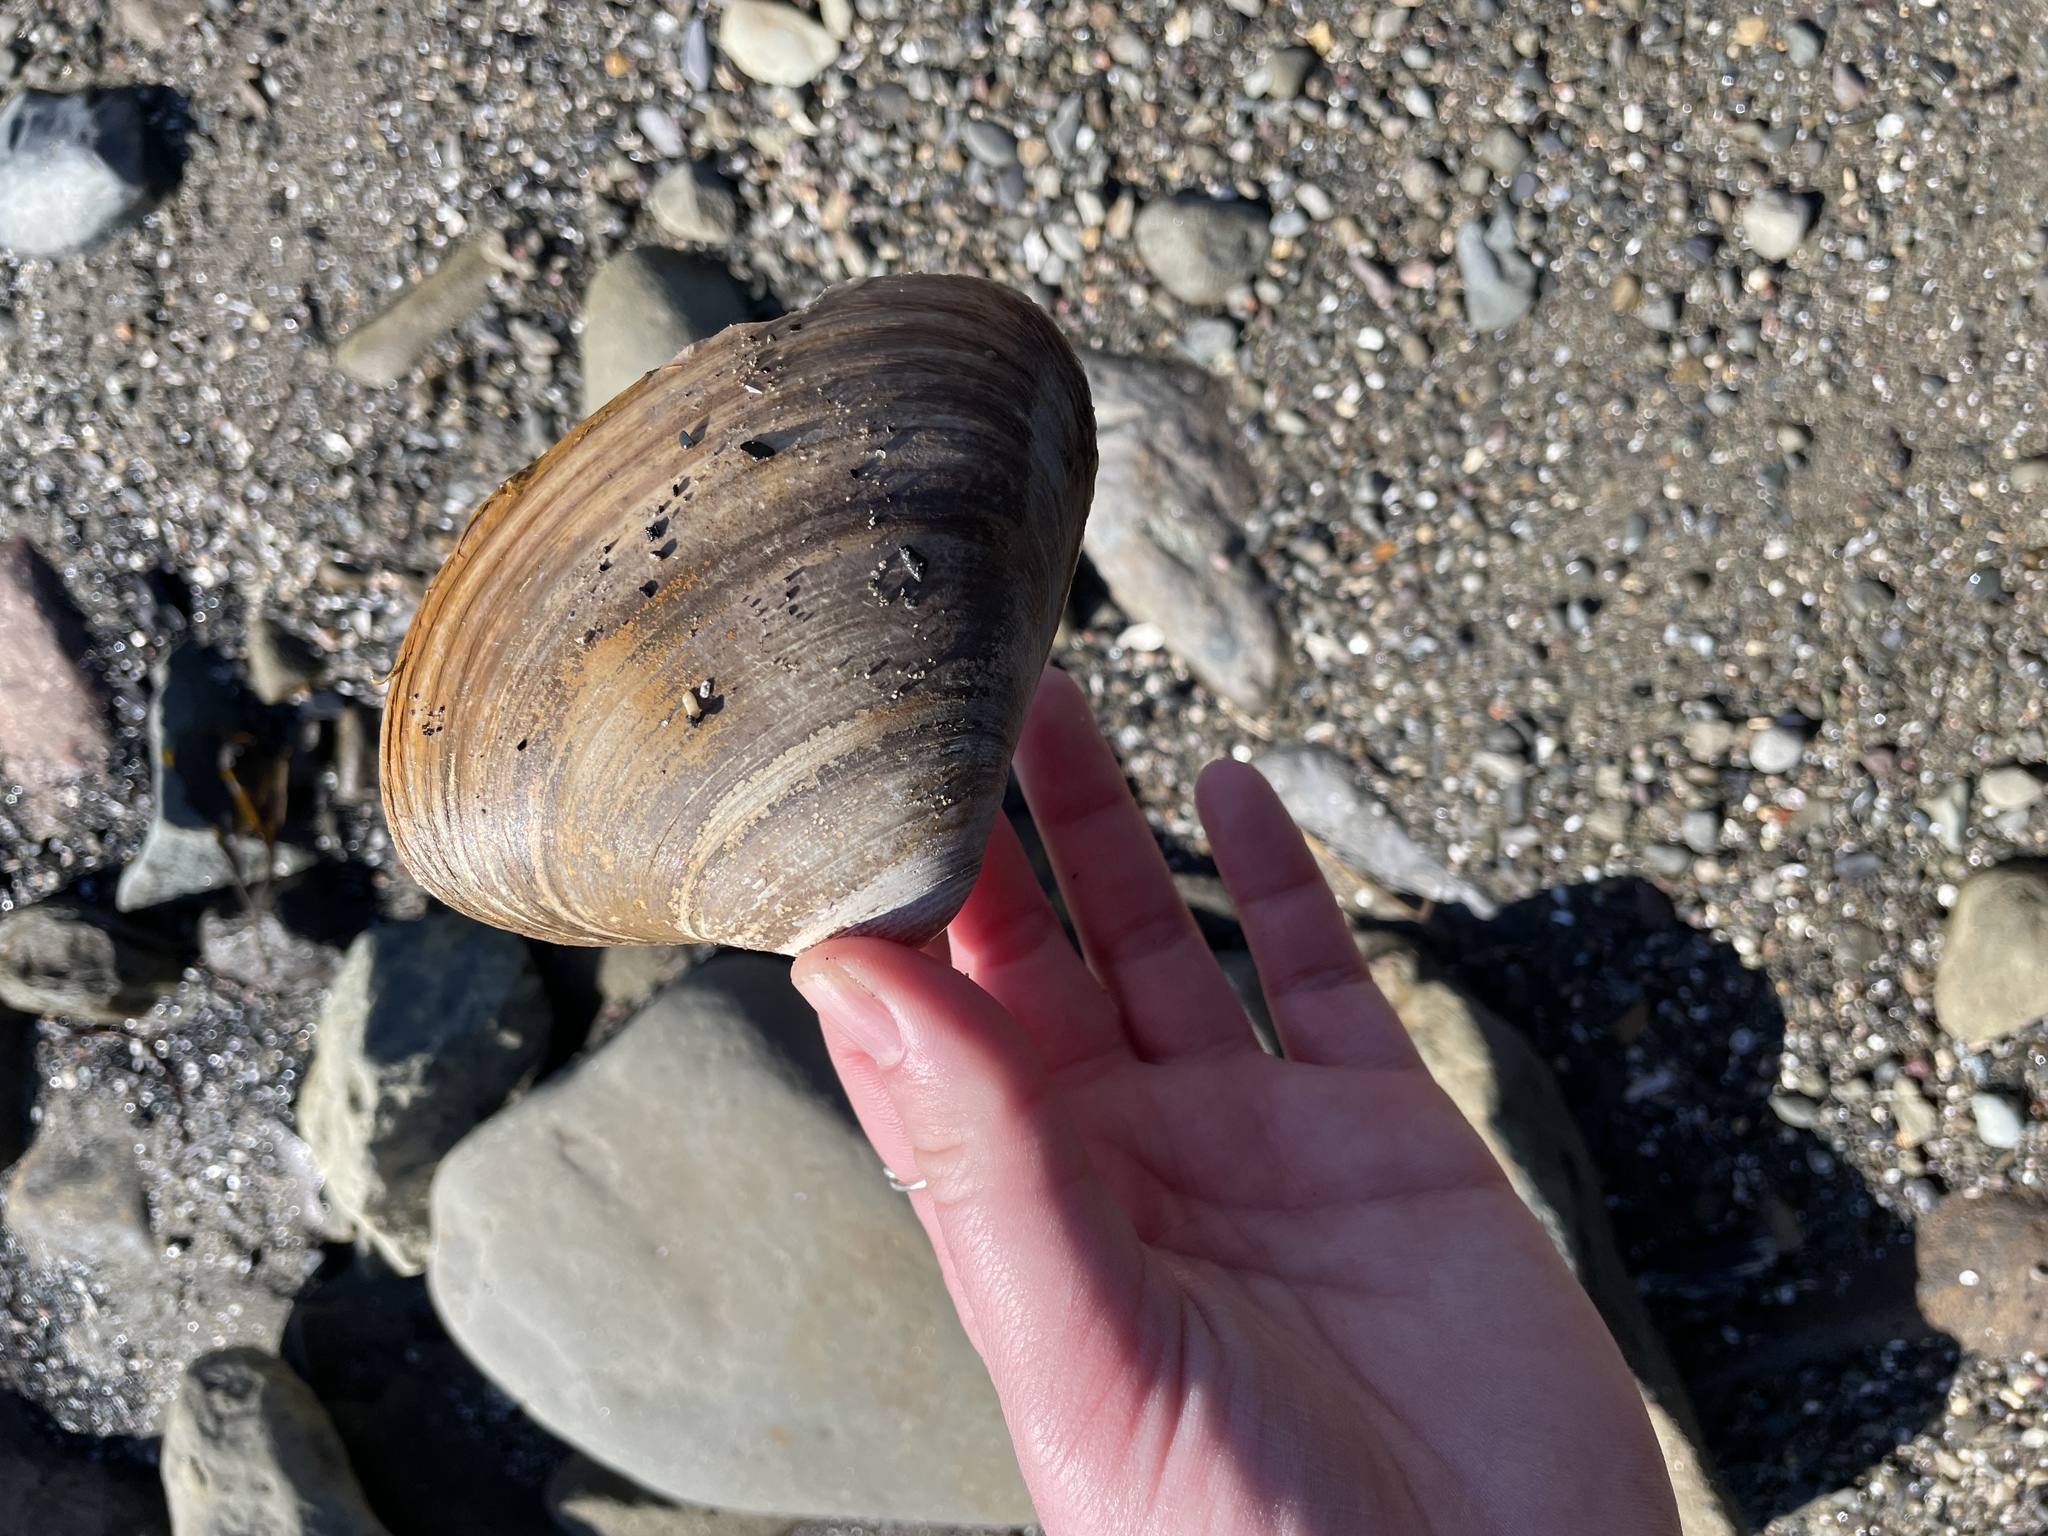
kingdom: Animalia
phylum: Mollusca
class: Bivalvia
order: Venerida
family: Mactridae
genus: Spisula
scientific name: Spisula solidissima
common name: Atlantic surf clam
